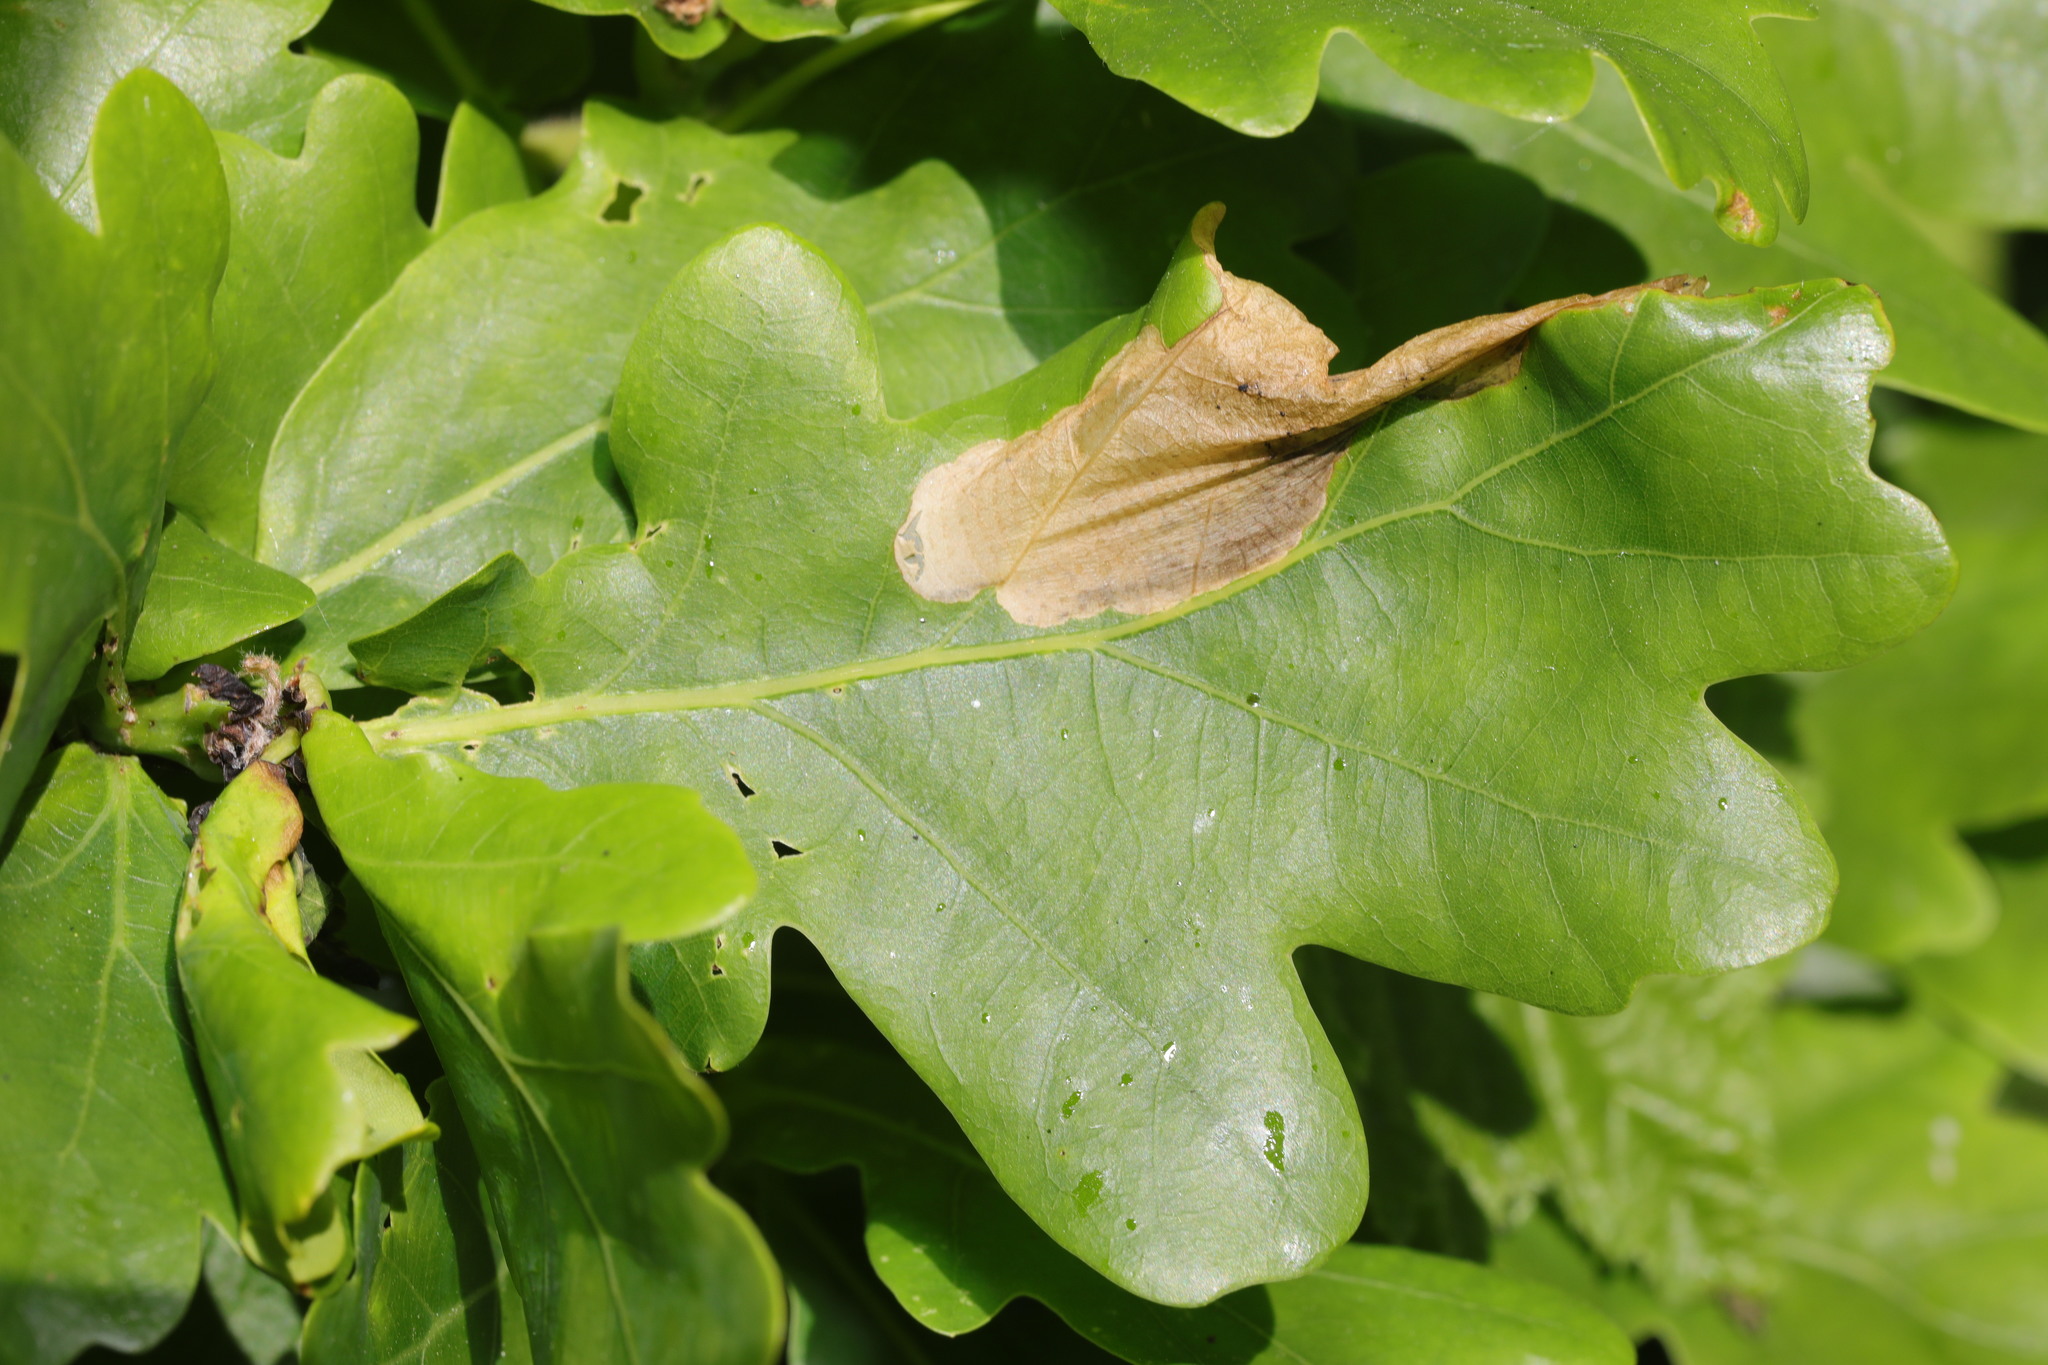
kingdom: Animalia
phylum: Arthropoda
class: Insecta
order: Lepidoptera
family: Eriocraniidae
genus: Dyseriocrania
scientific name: Dyseriocrania subpurpurella
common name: Common oak purple
